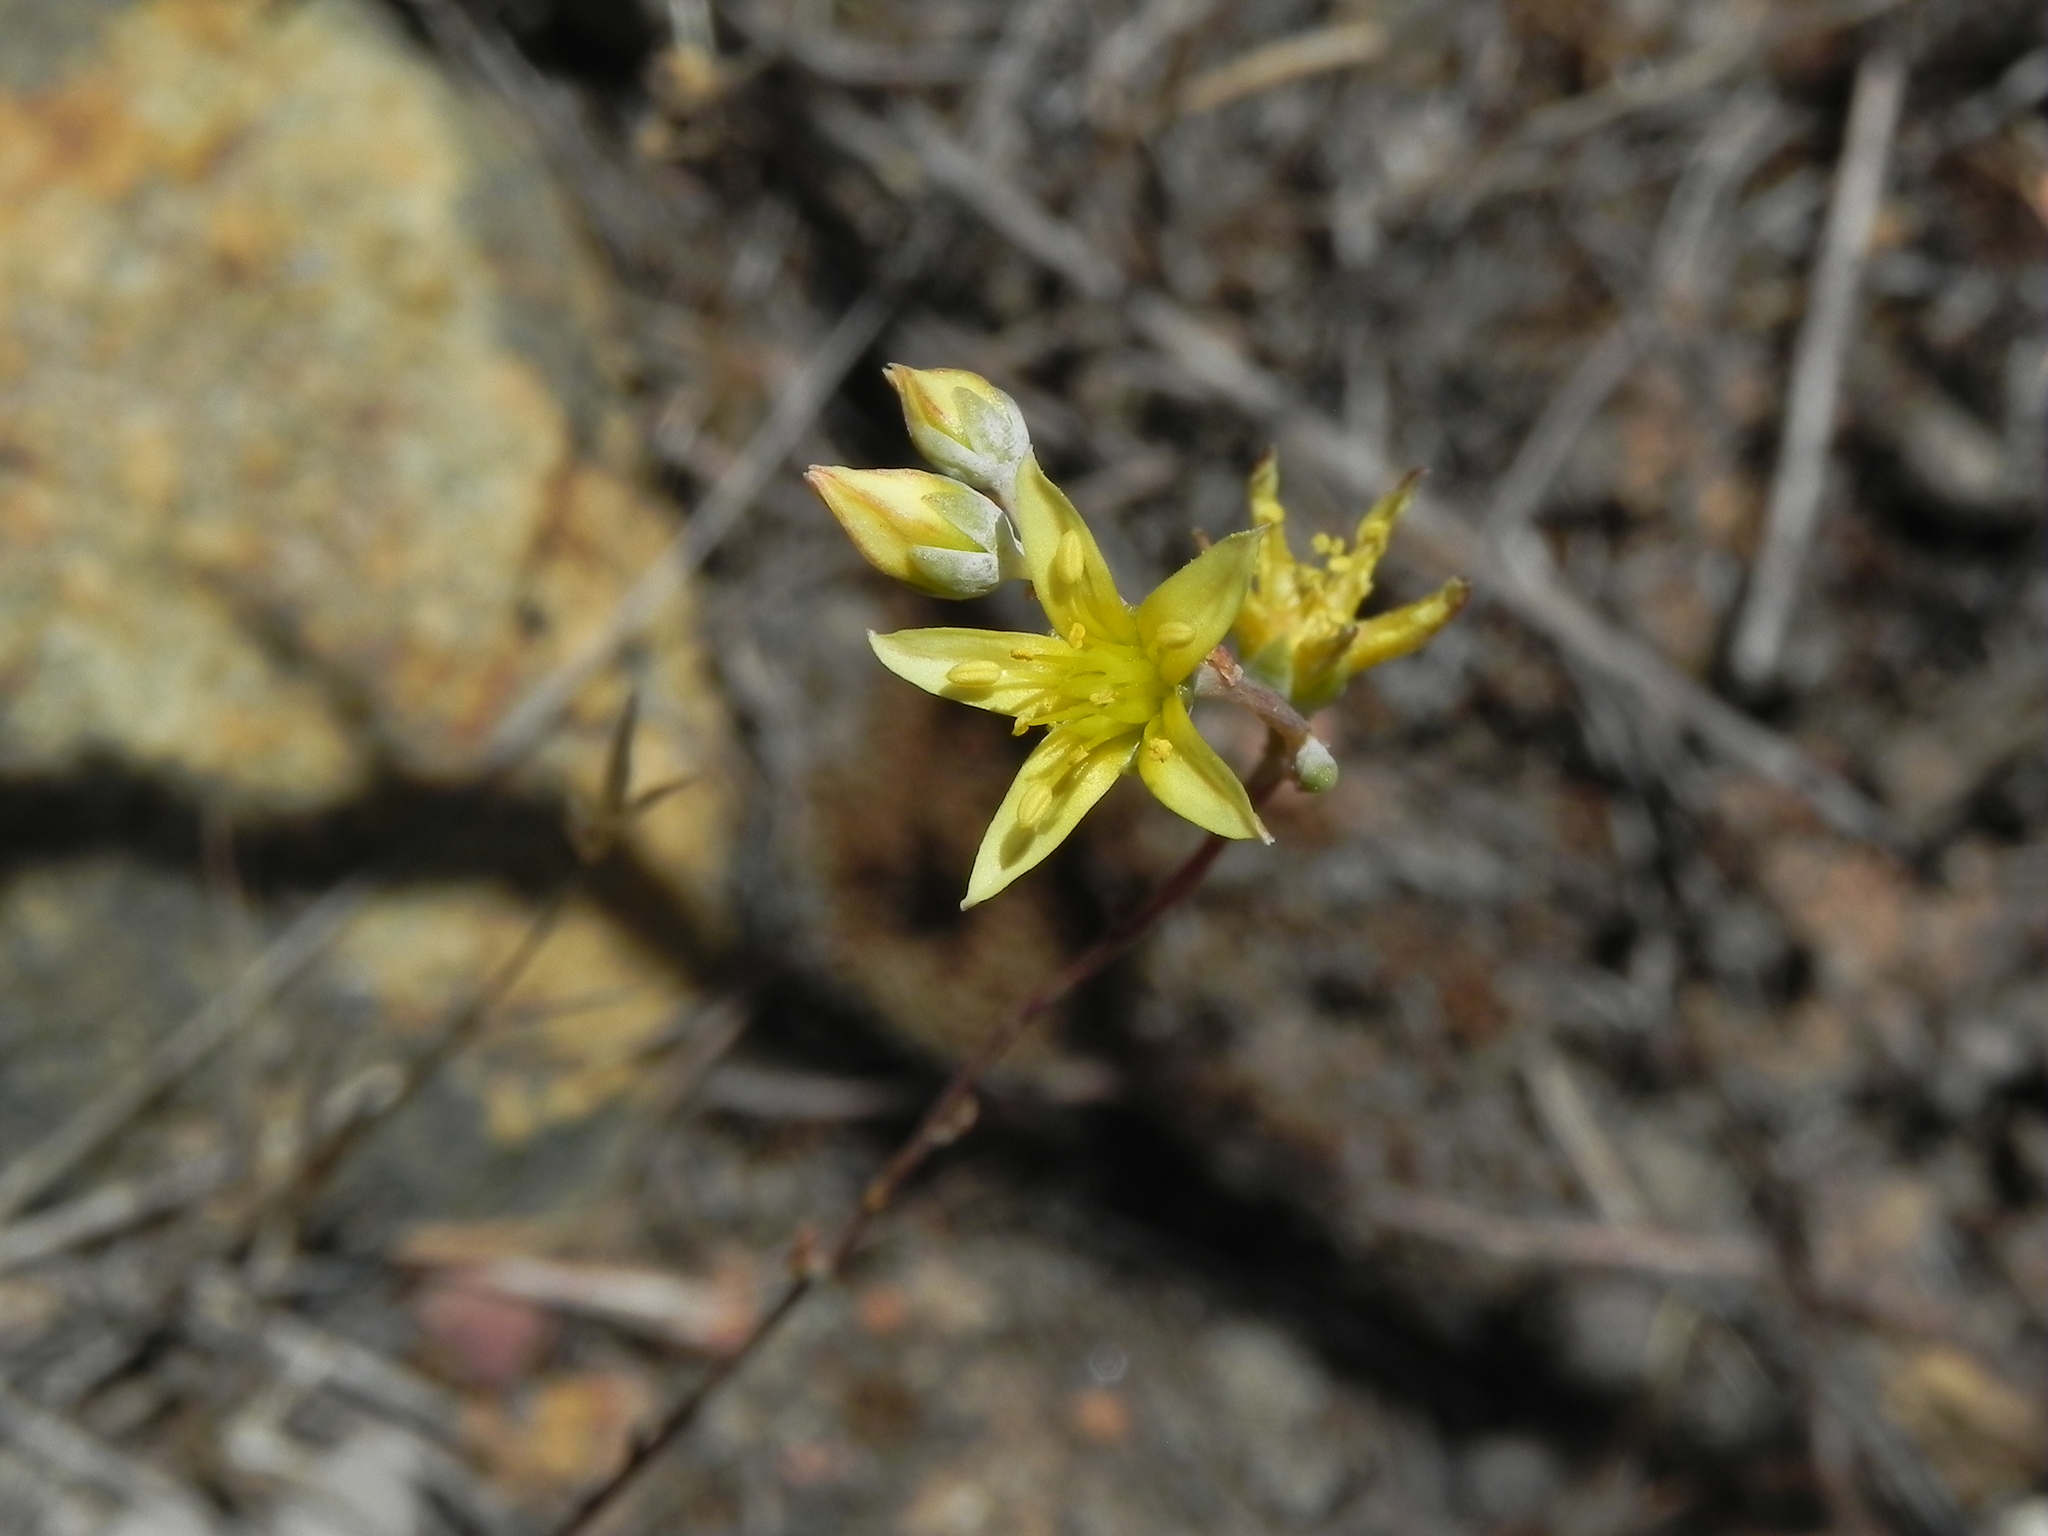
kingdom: Plantae
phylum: Tracheophyta
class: Magnoliopsida
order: Saxifragales
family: Crassulaceae
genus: Dudleya
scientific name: Dudleya variegata
